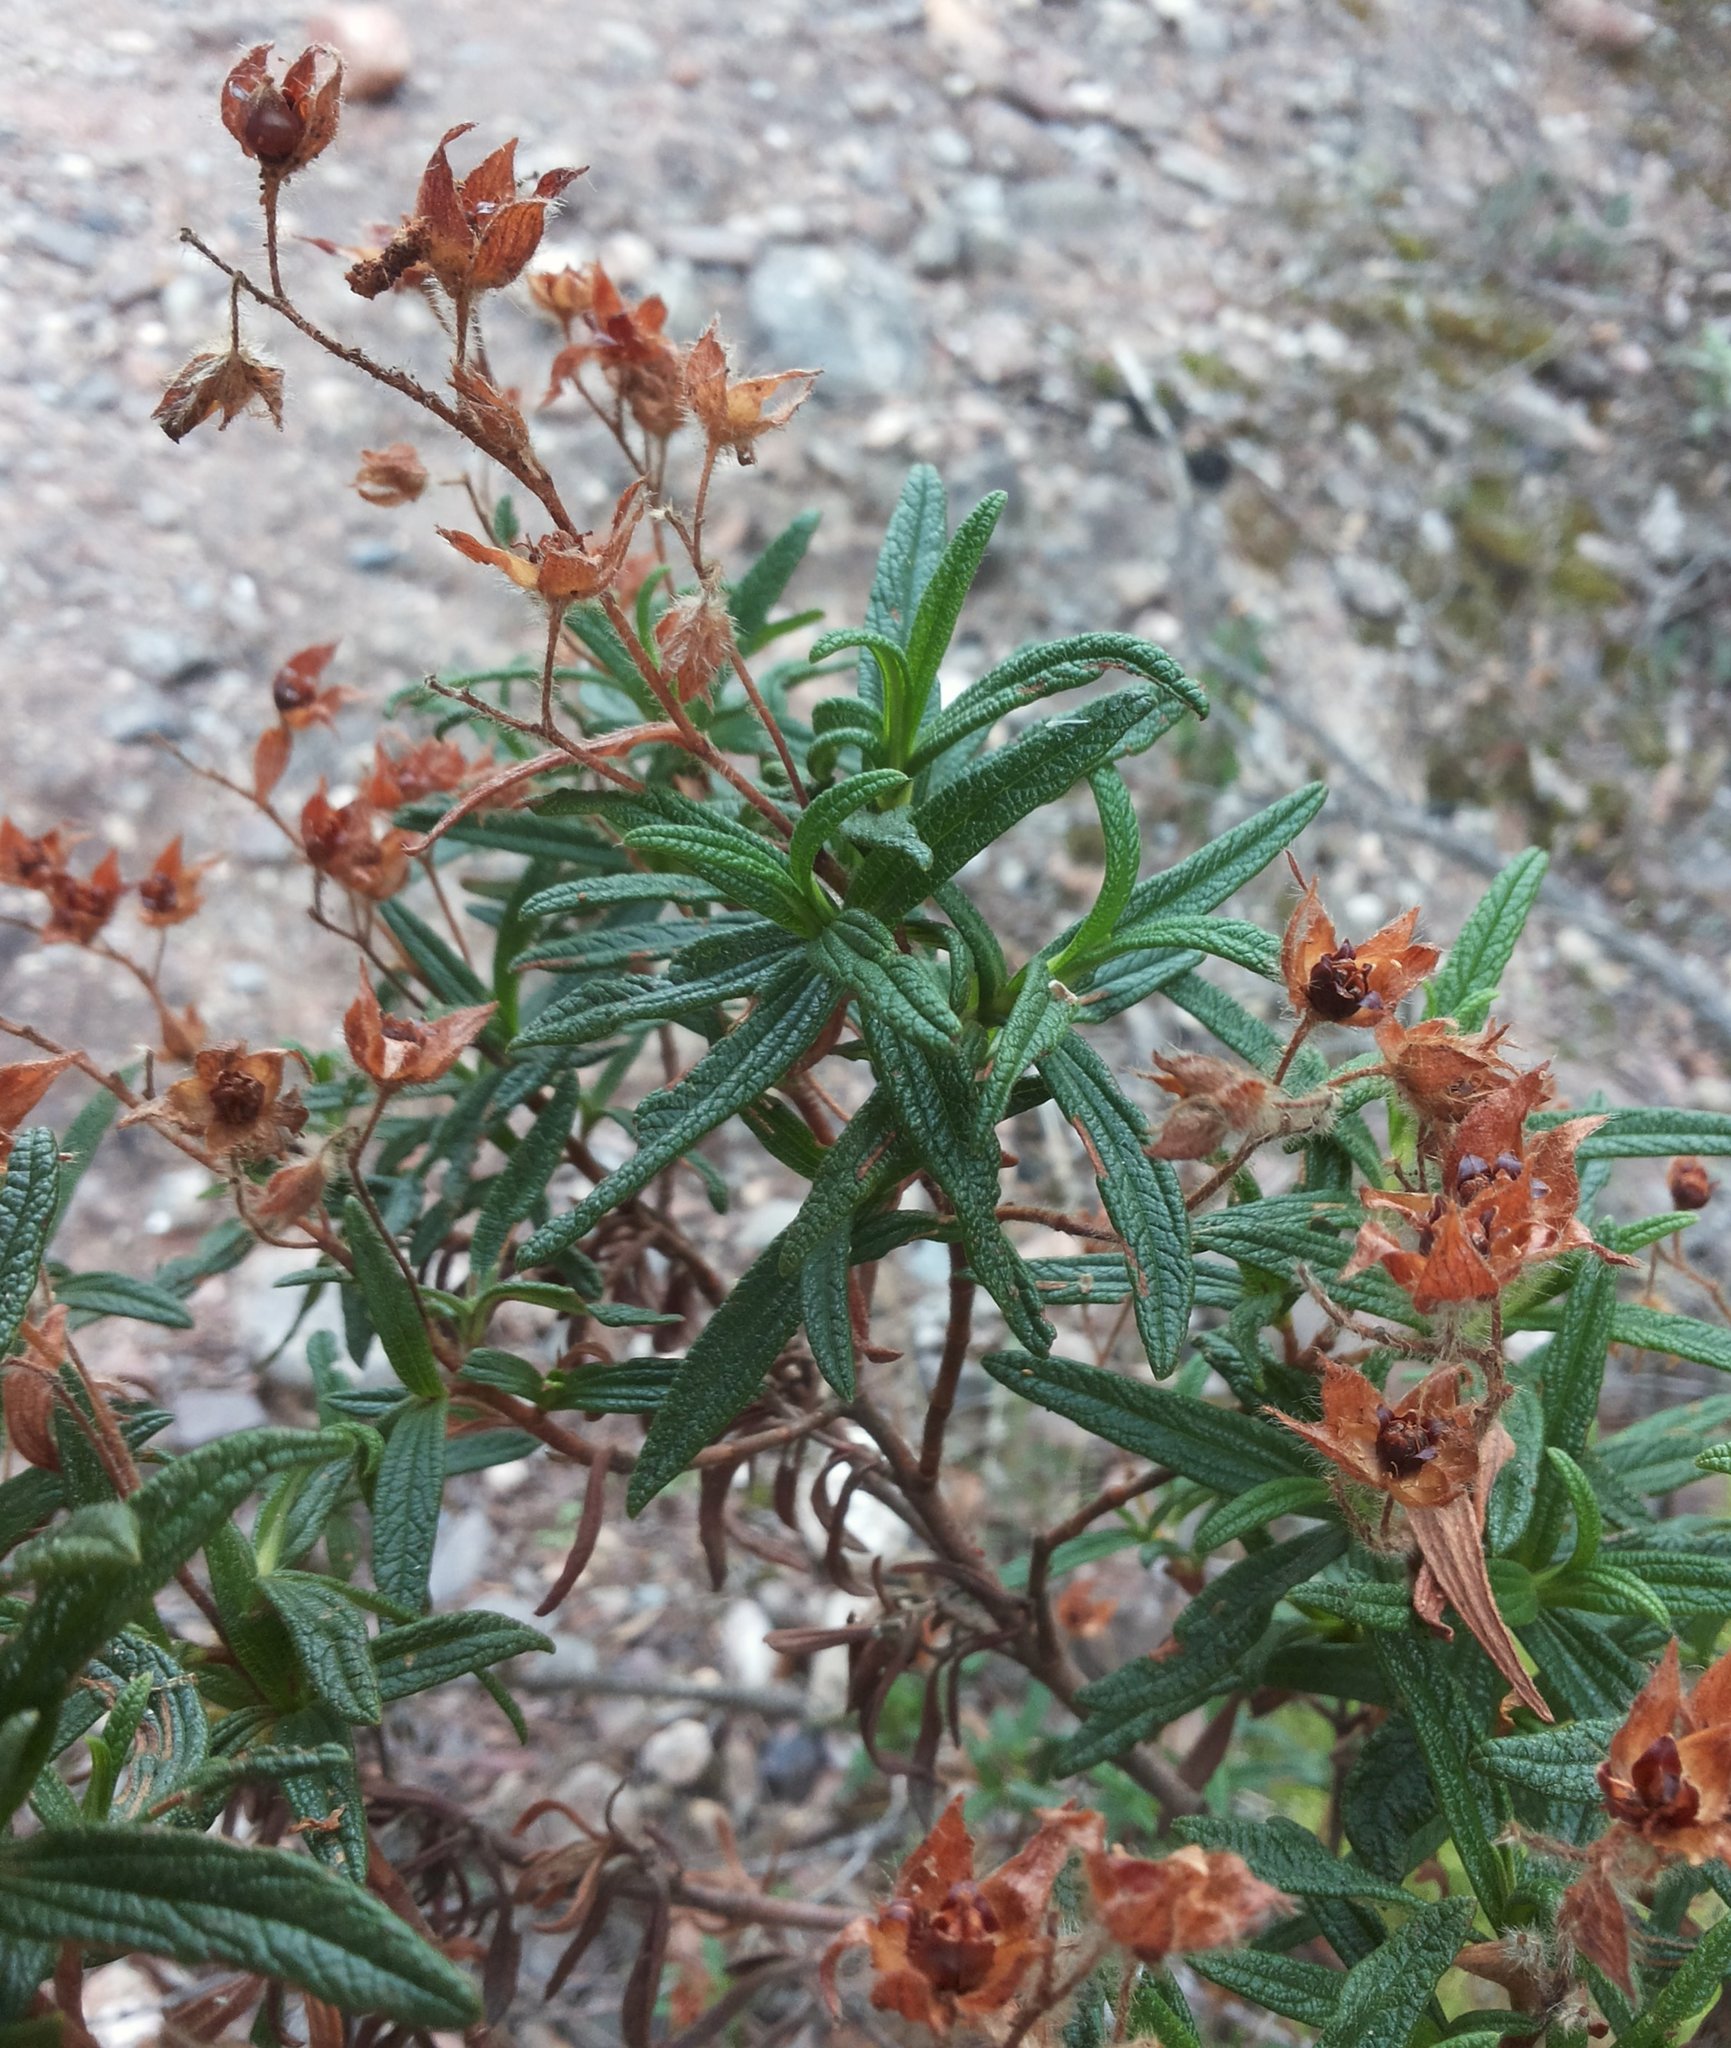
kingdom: Plantae
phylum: Tracheophyta
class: Magnoliopsida
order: Malvales
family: Cistaceae
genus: Cistus
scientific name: Cistus monspeliensis
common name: Montpelier cistus
